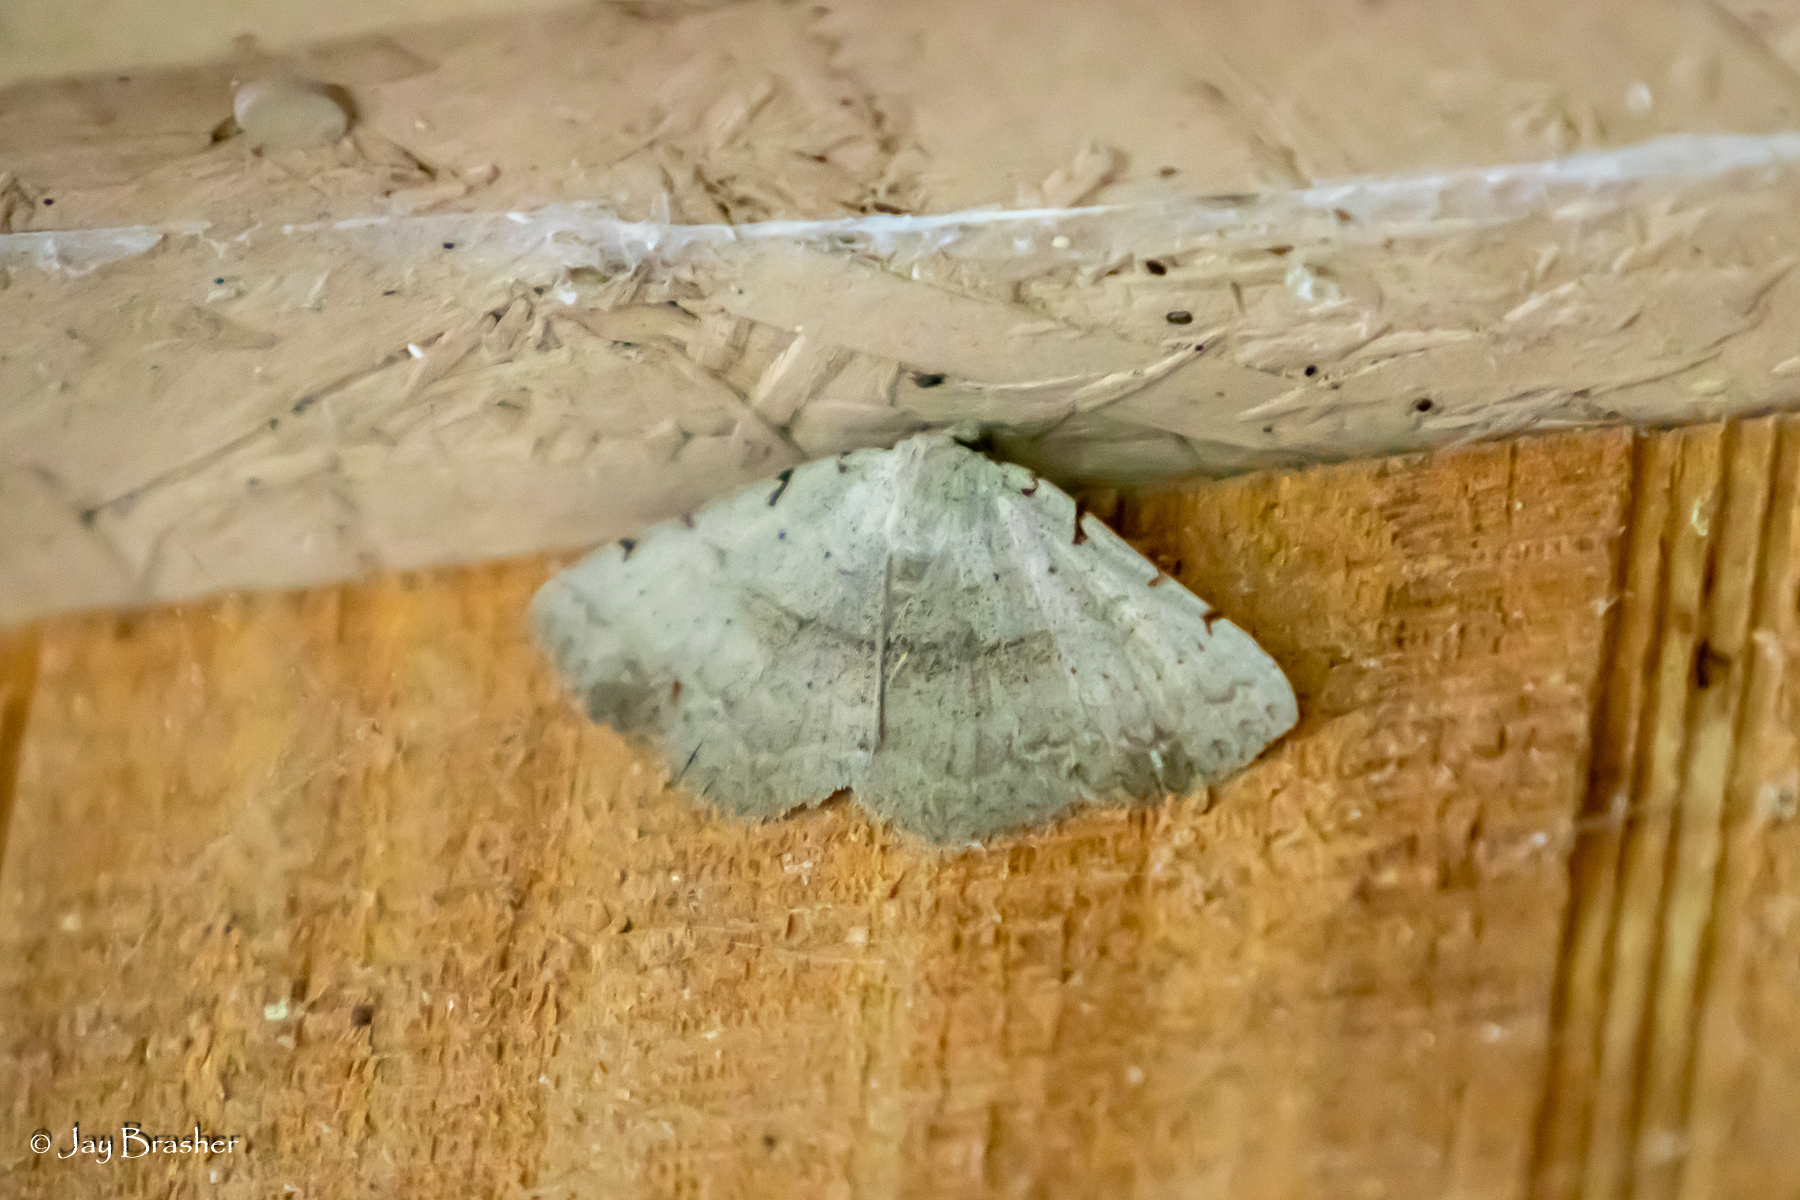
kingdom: Animalia
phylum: Arthropoda
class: Insecta
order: Lepidoptera
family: Erebidae
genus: Spiloloma
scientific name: Spiloloma lunilinea
